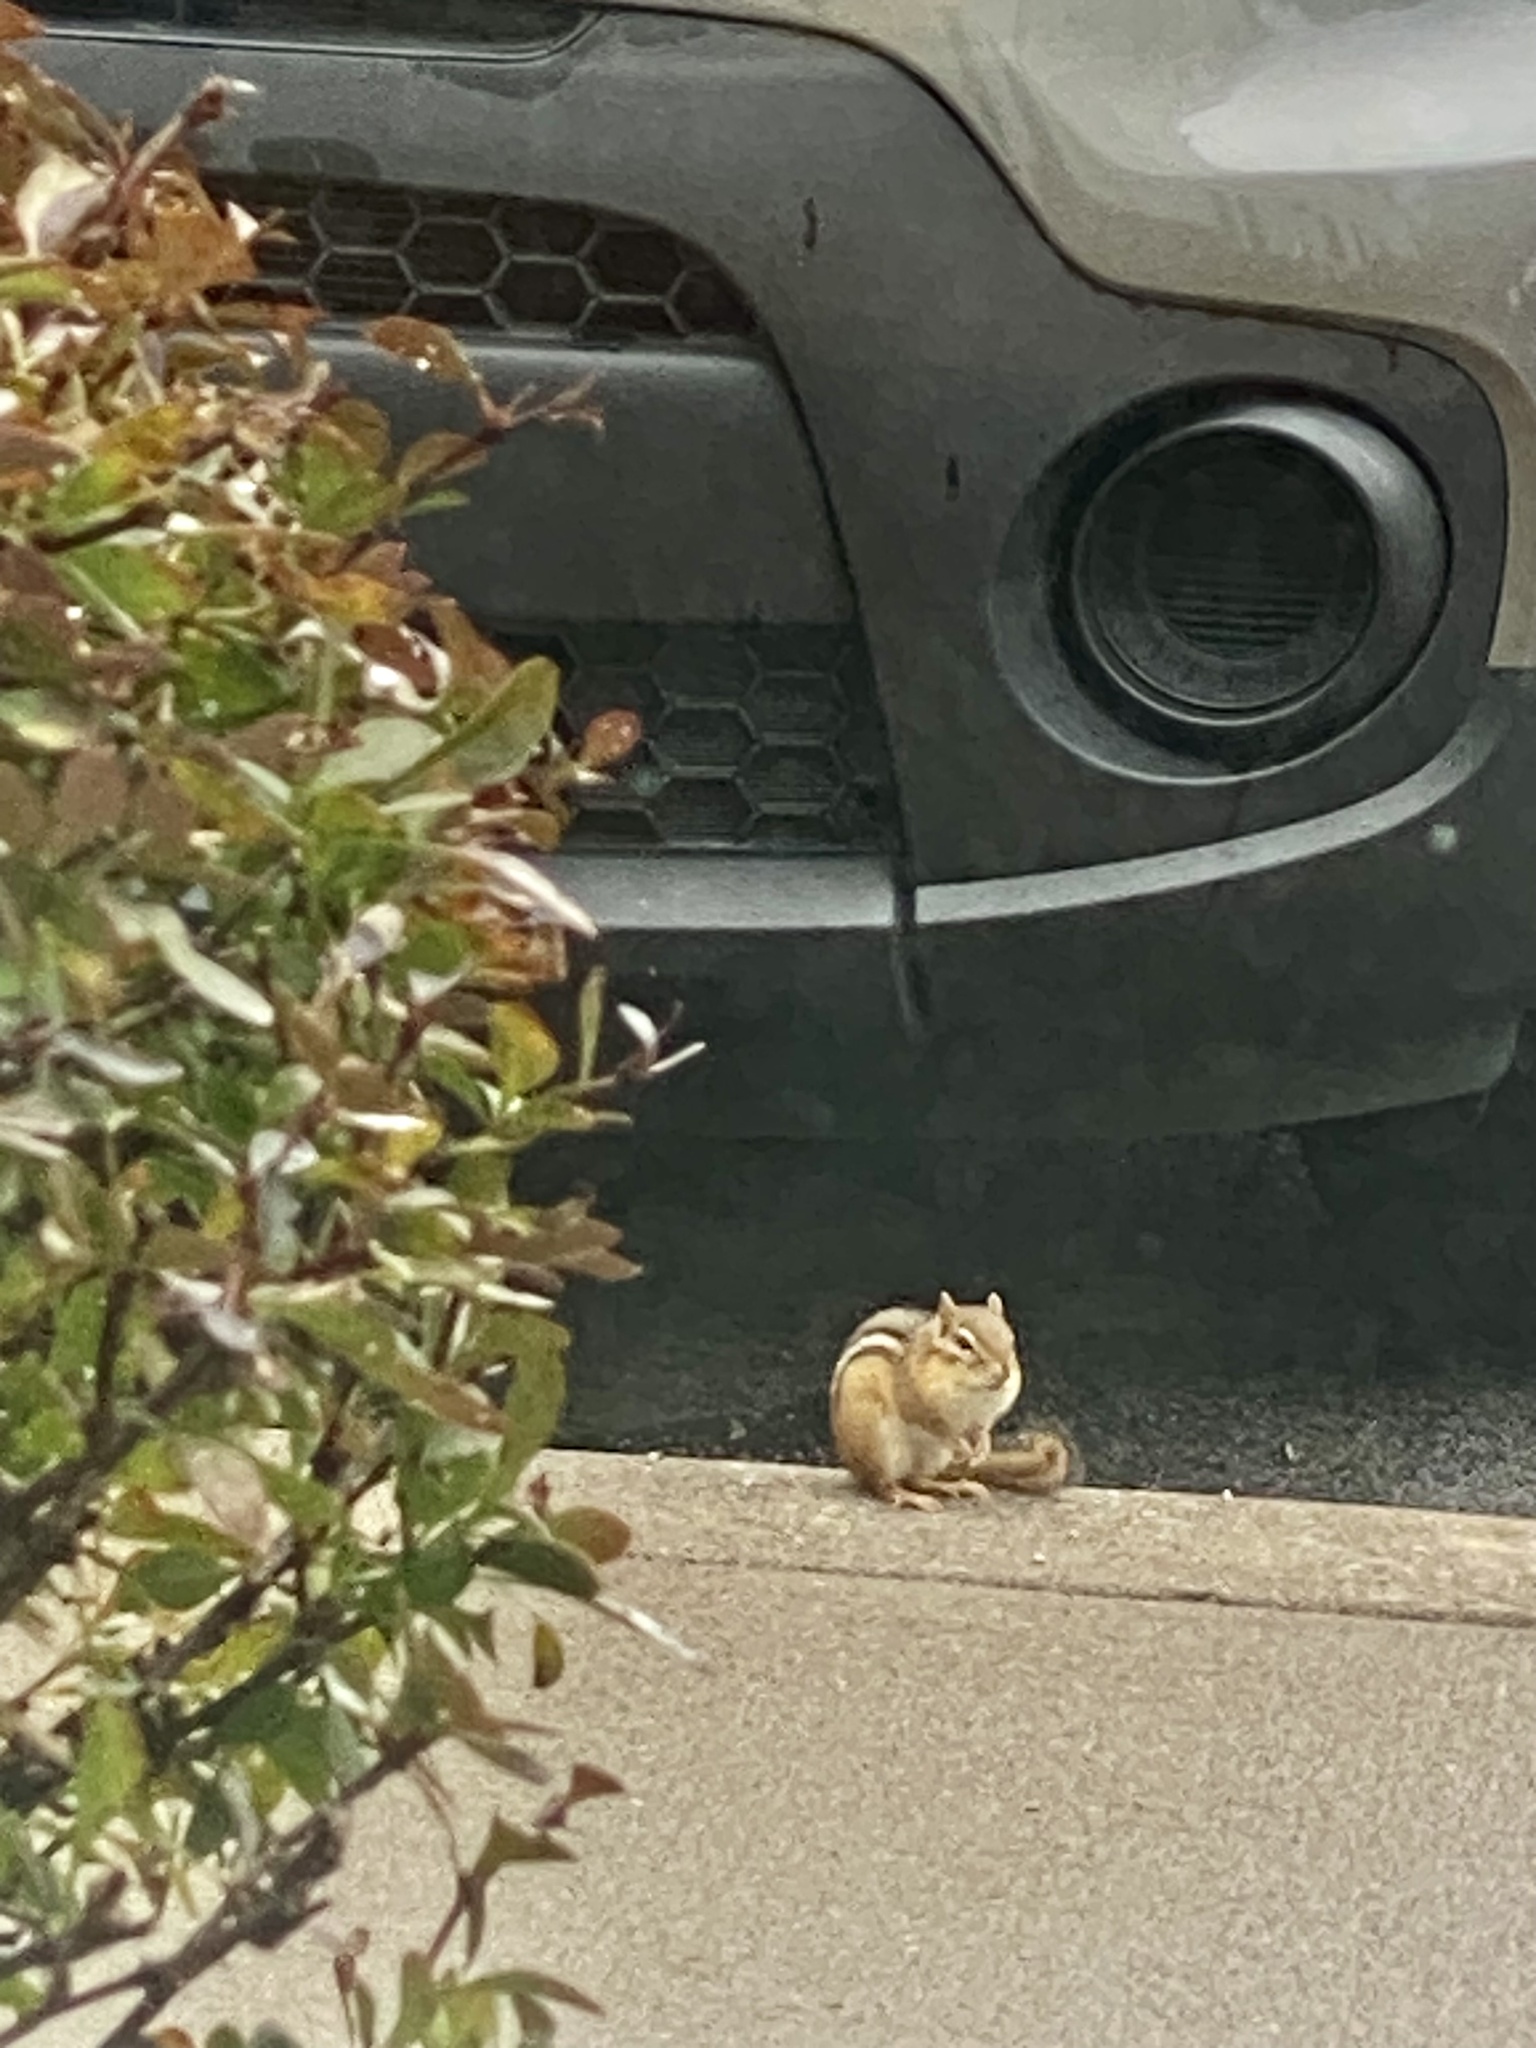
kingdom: Animalia
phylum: Chordata
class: Mammalia
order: Rodentia
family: Sciuridae
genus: Tamias
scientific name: Tamias striatus
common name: Eastern chipmunk
